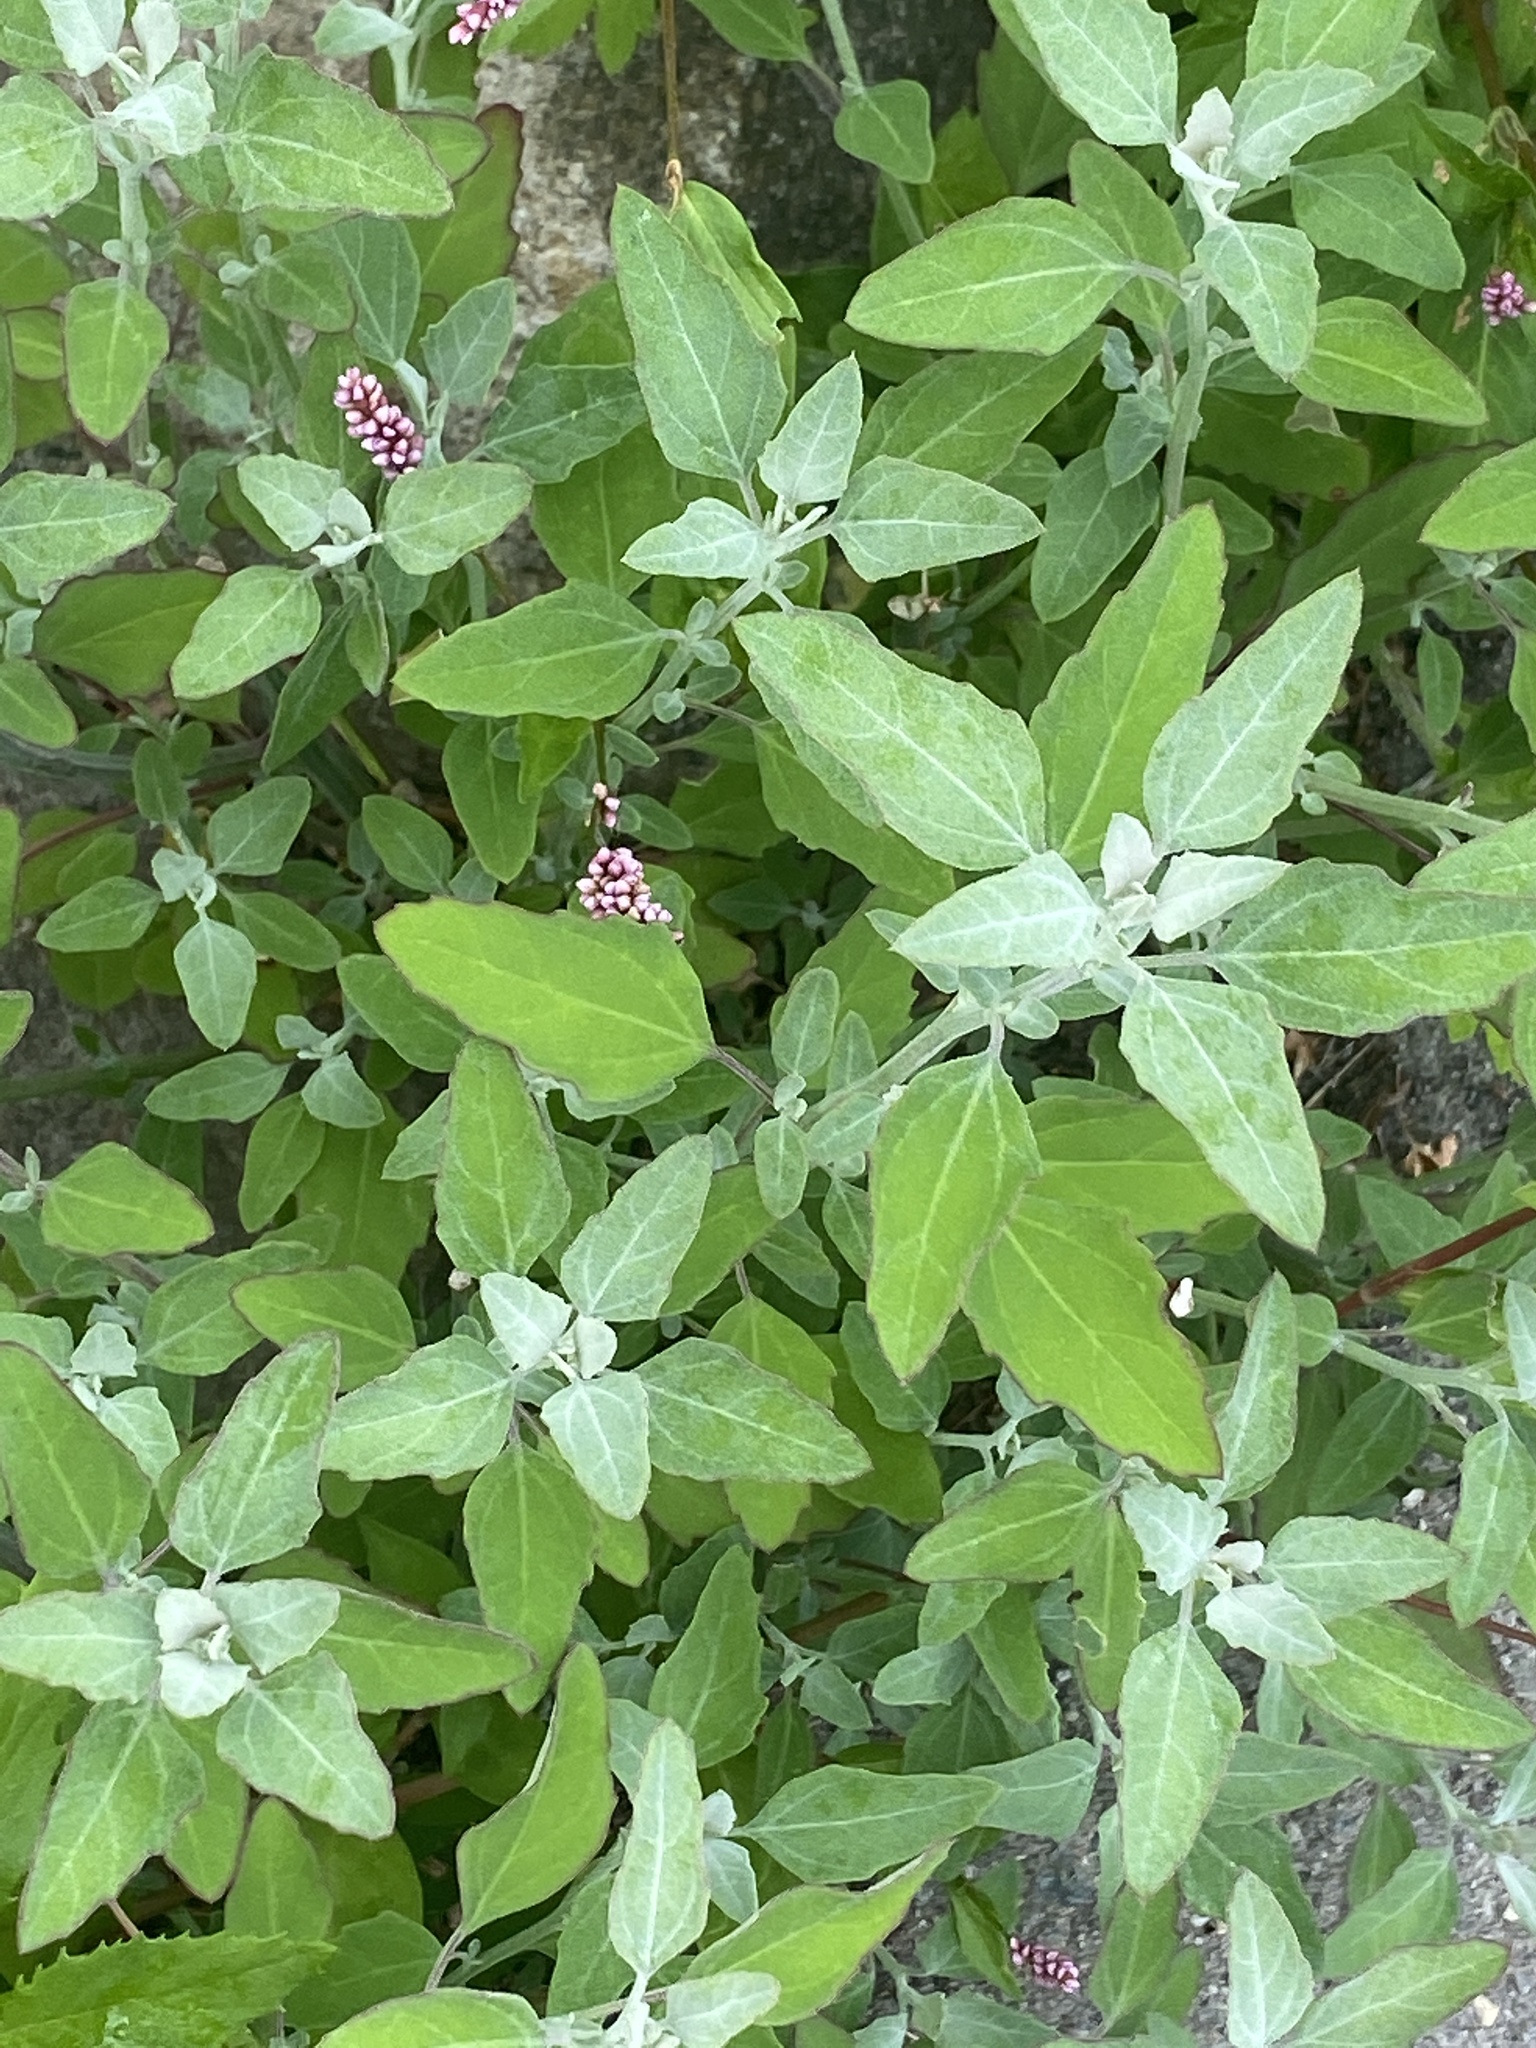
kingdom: Plantae
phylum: Tracheophyta
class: Magnoliopsida
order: Caryophyllales
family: Amaranthaceae
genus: Chenopodium
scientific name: Chenopodium album
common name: Fat-hen
